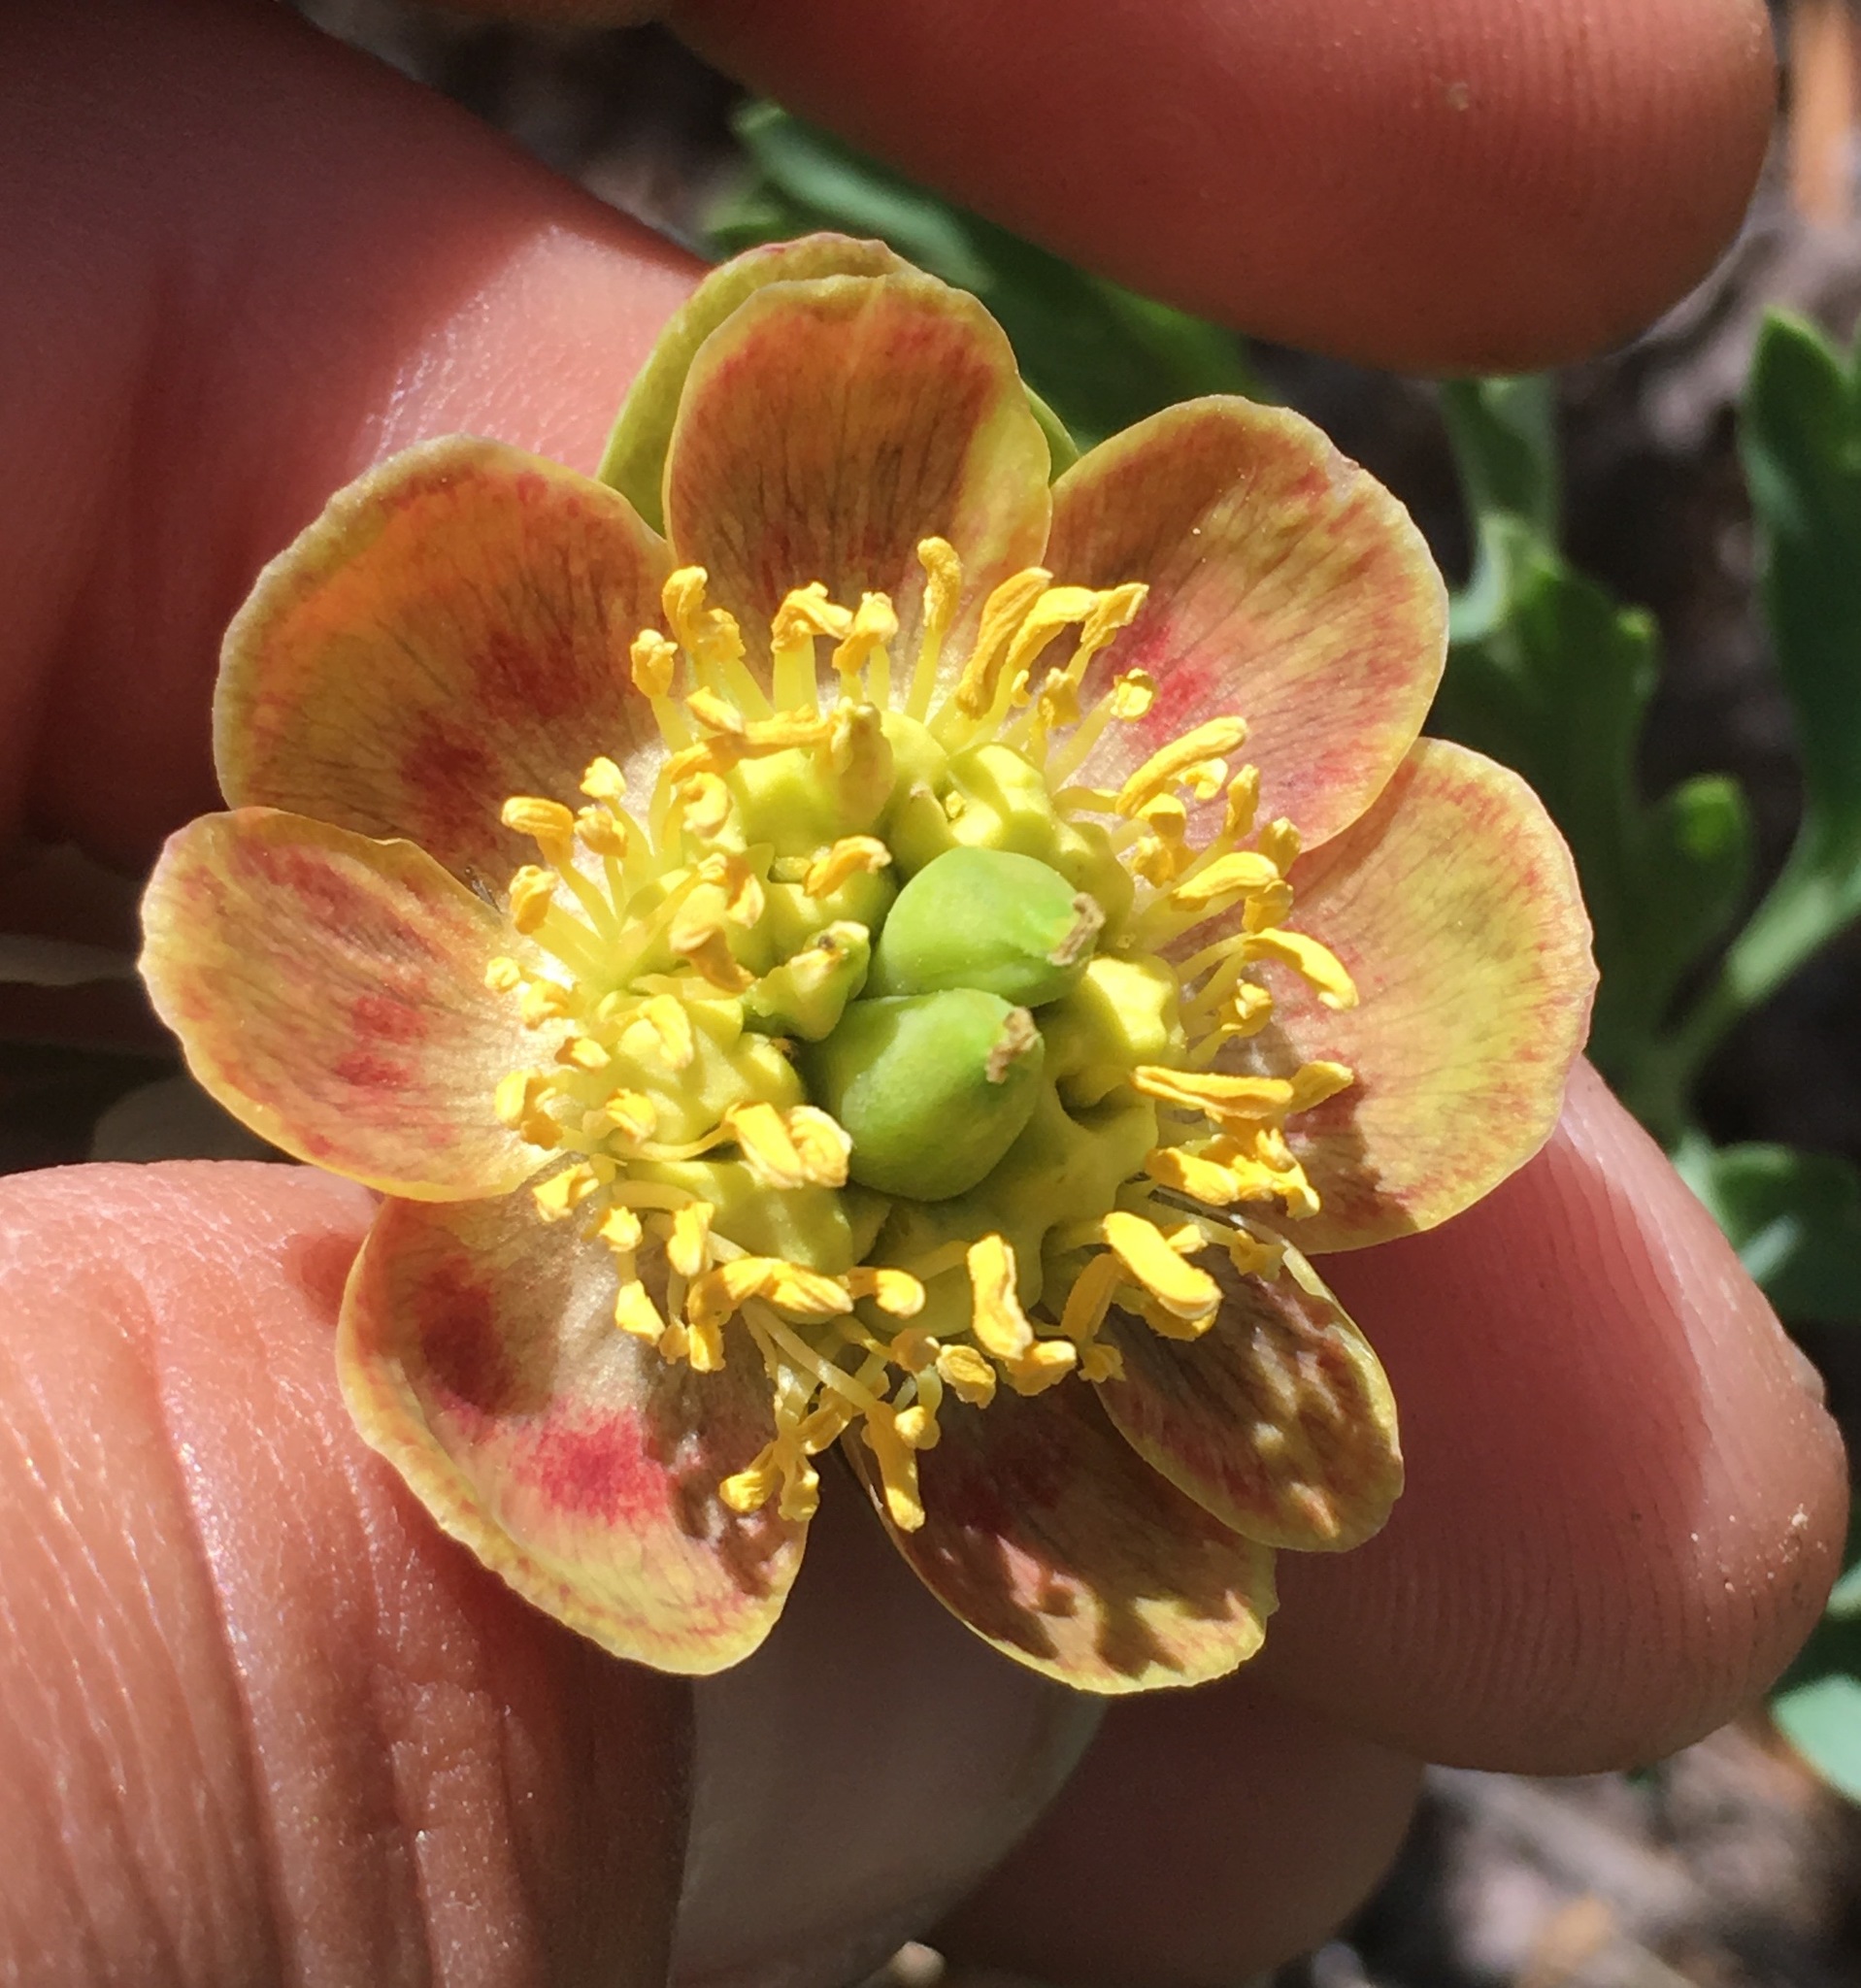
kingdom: Plantae
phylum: Tracheophyta
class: Magnoliopsida
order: Saxifragales
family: Paeoniaceae
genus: Paeonia
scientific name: Paeonia brownii
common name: Brown's peony
